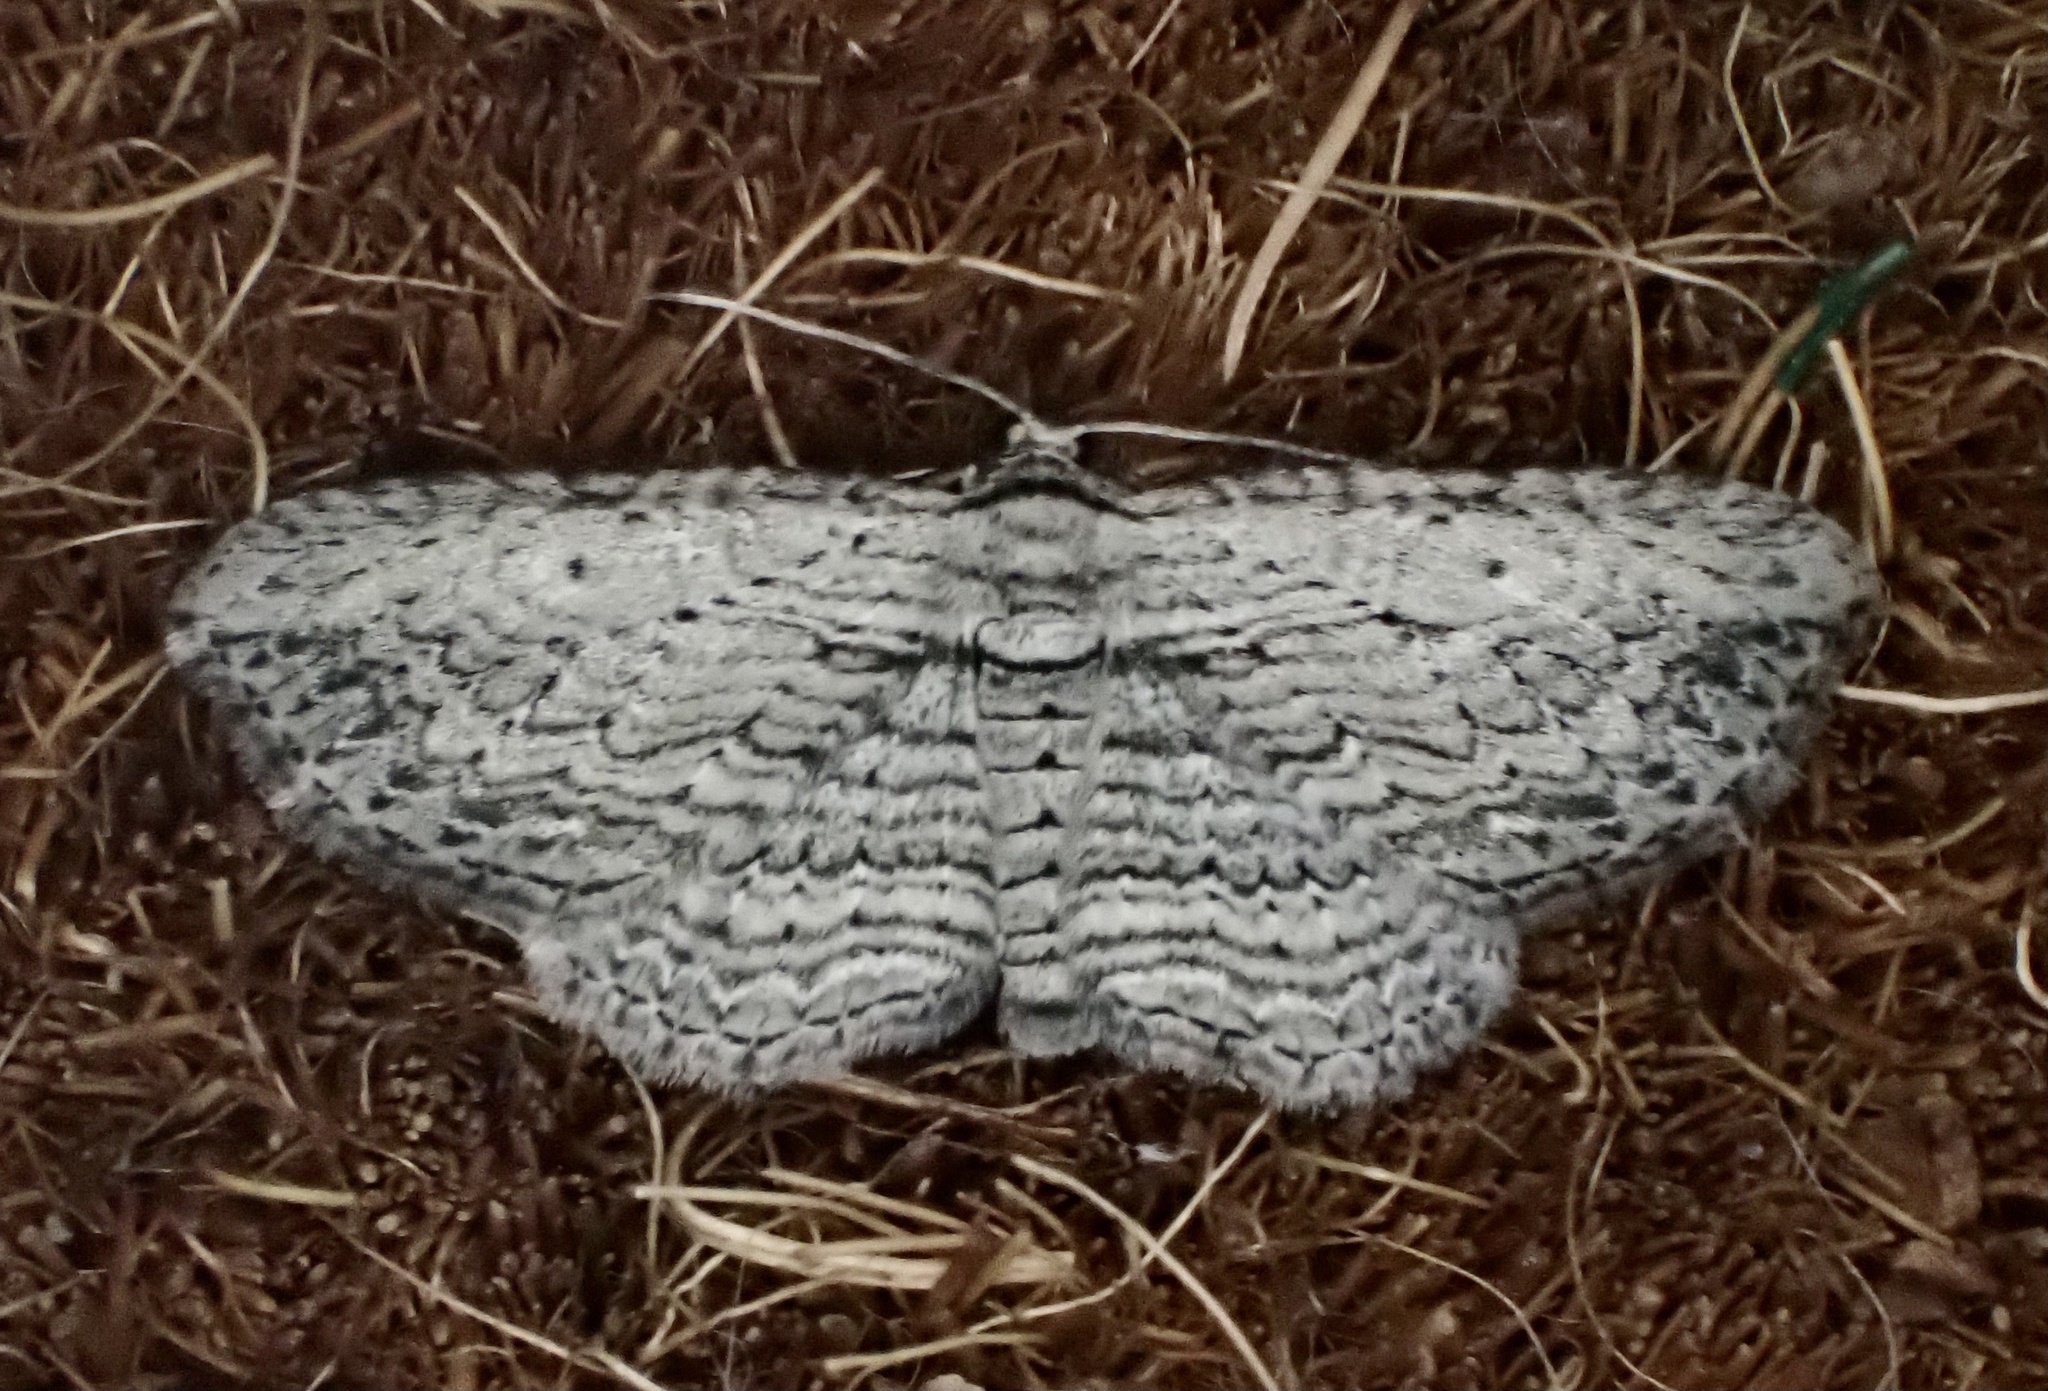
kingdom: Animalia
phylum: Arthropoda
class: Insecta
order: Lepidoptera
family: Geometridae
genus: Horisme
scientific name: Horisme intestinata
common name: Brown bark carpet
